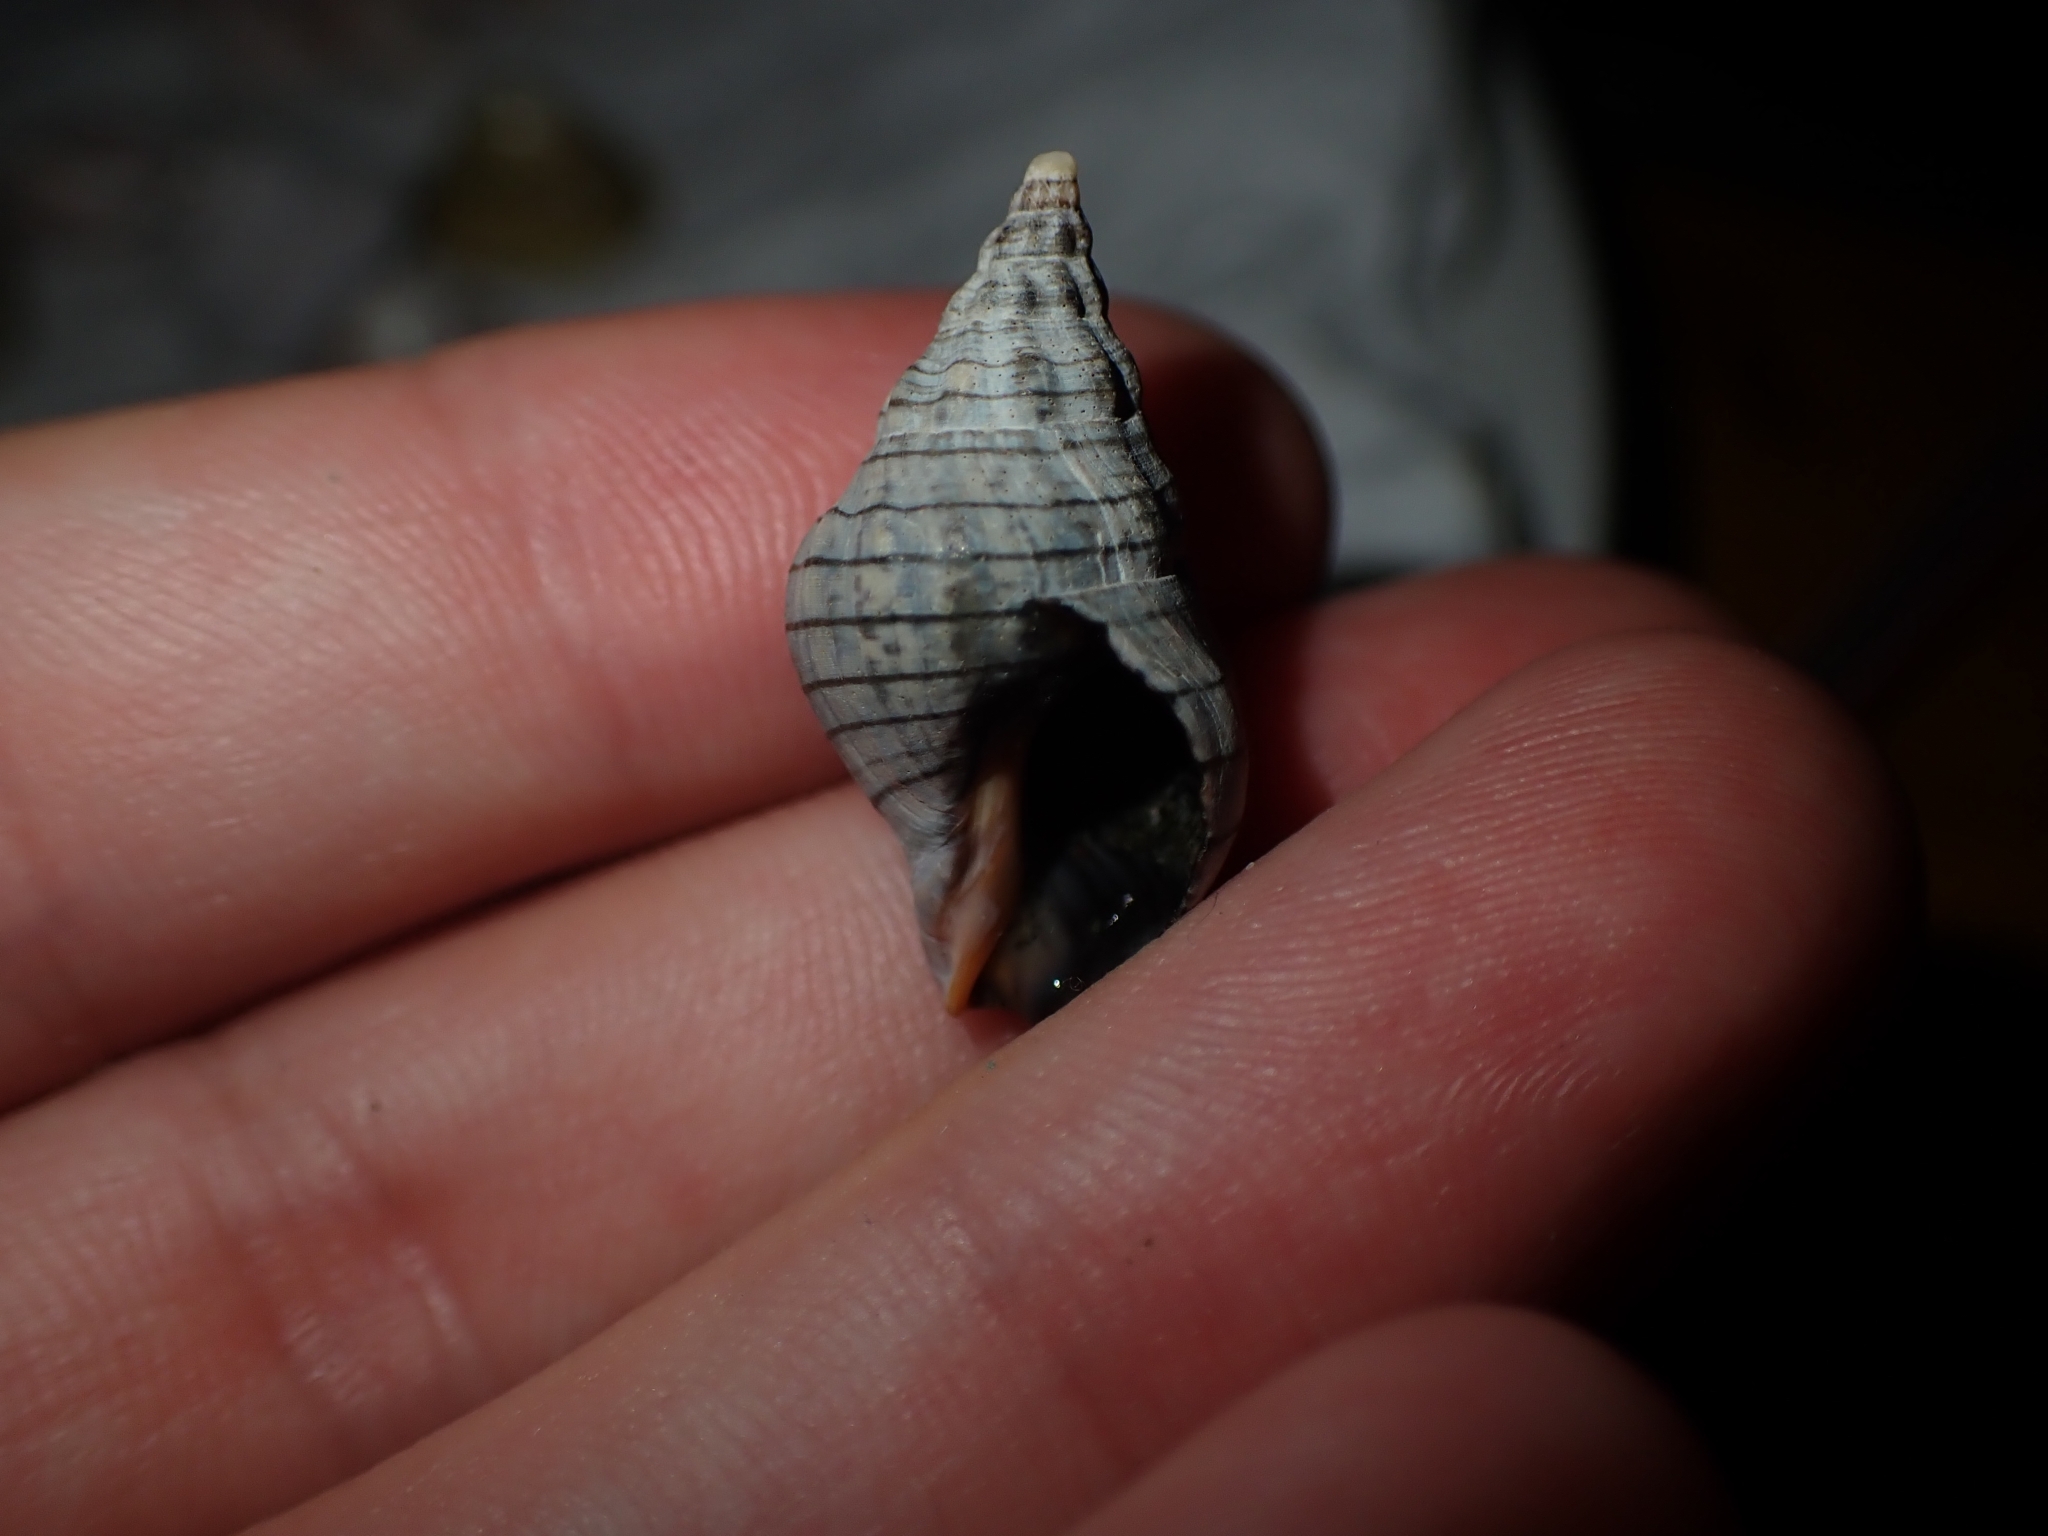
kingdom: Animalia
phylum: Mollusca
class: Gastropoda
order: Neogastropoda
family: Cominellidae
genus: Cominella
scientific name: Cominella virgata
